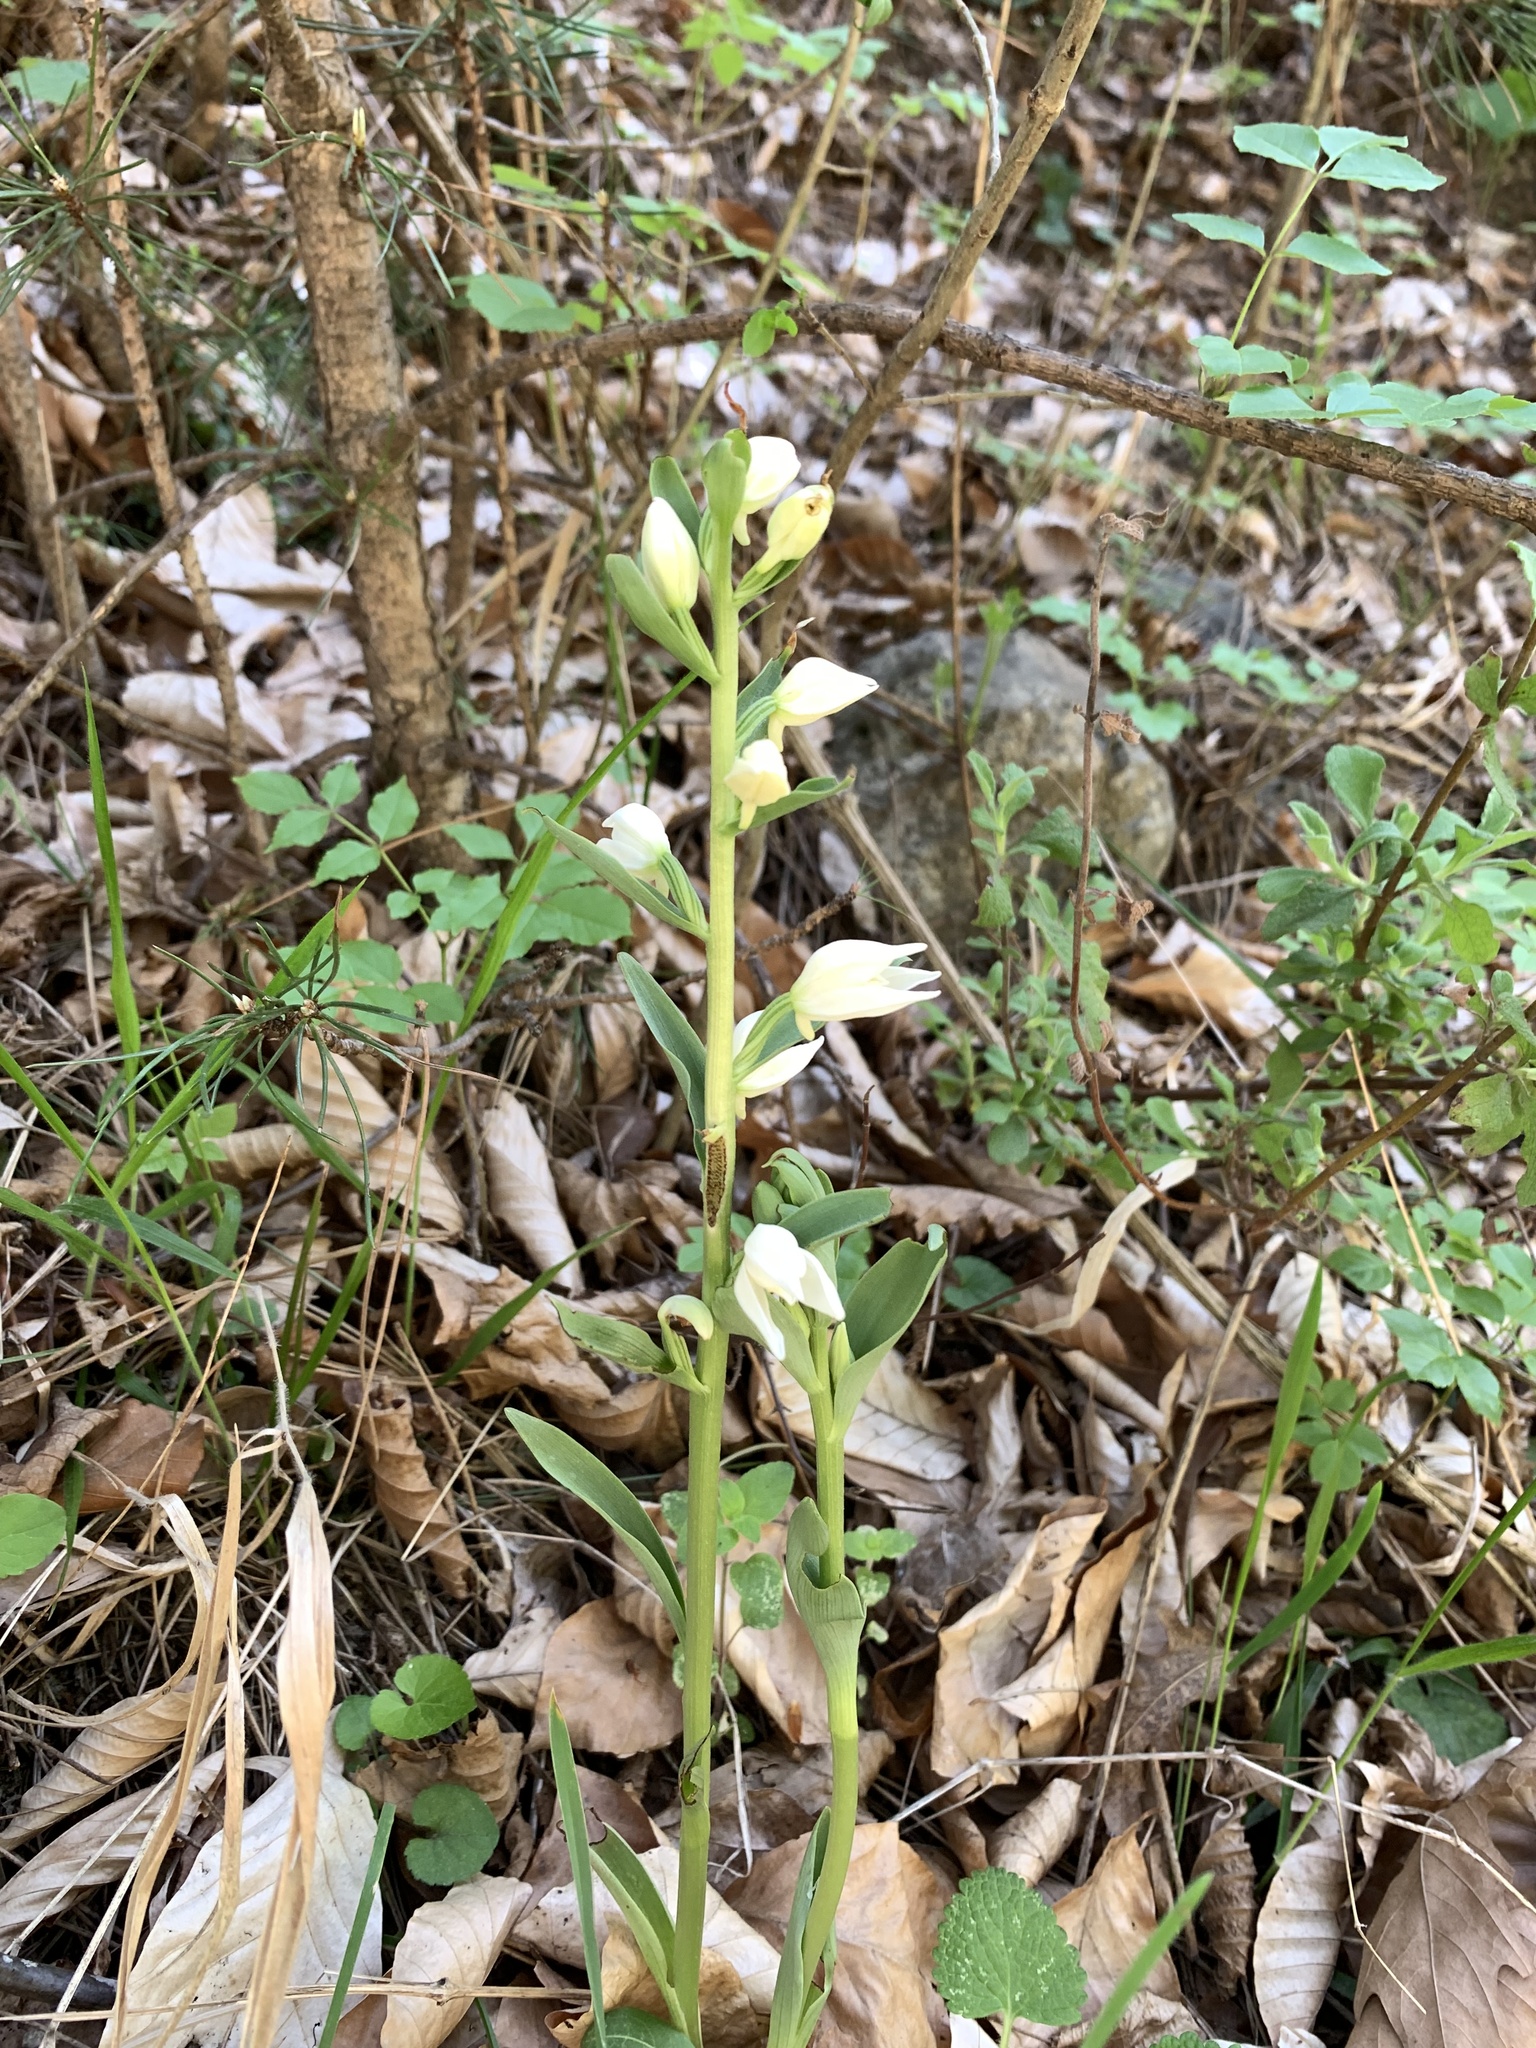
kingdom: Plantae
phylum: Tracheophyta
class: Liliopsida
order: Asparagales
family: Orchidaceae
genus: Cephalanthera
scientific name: Cephalanthera epipactoides
